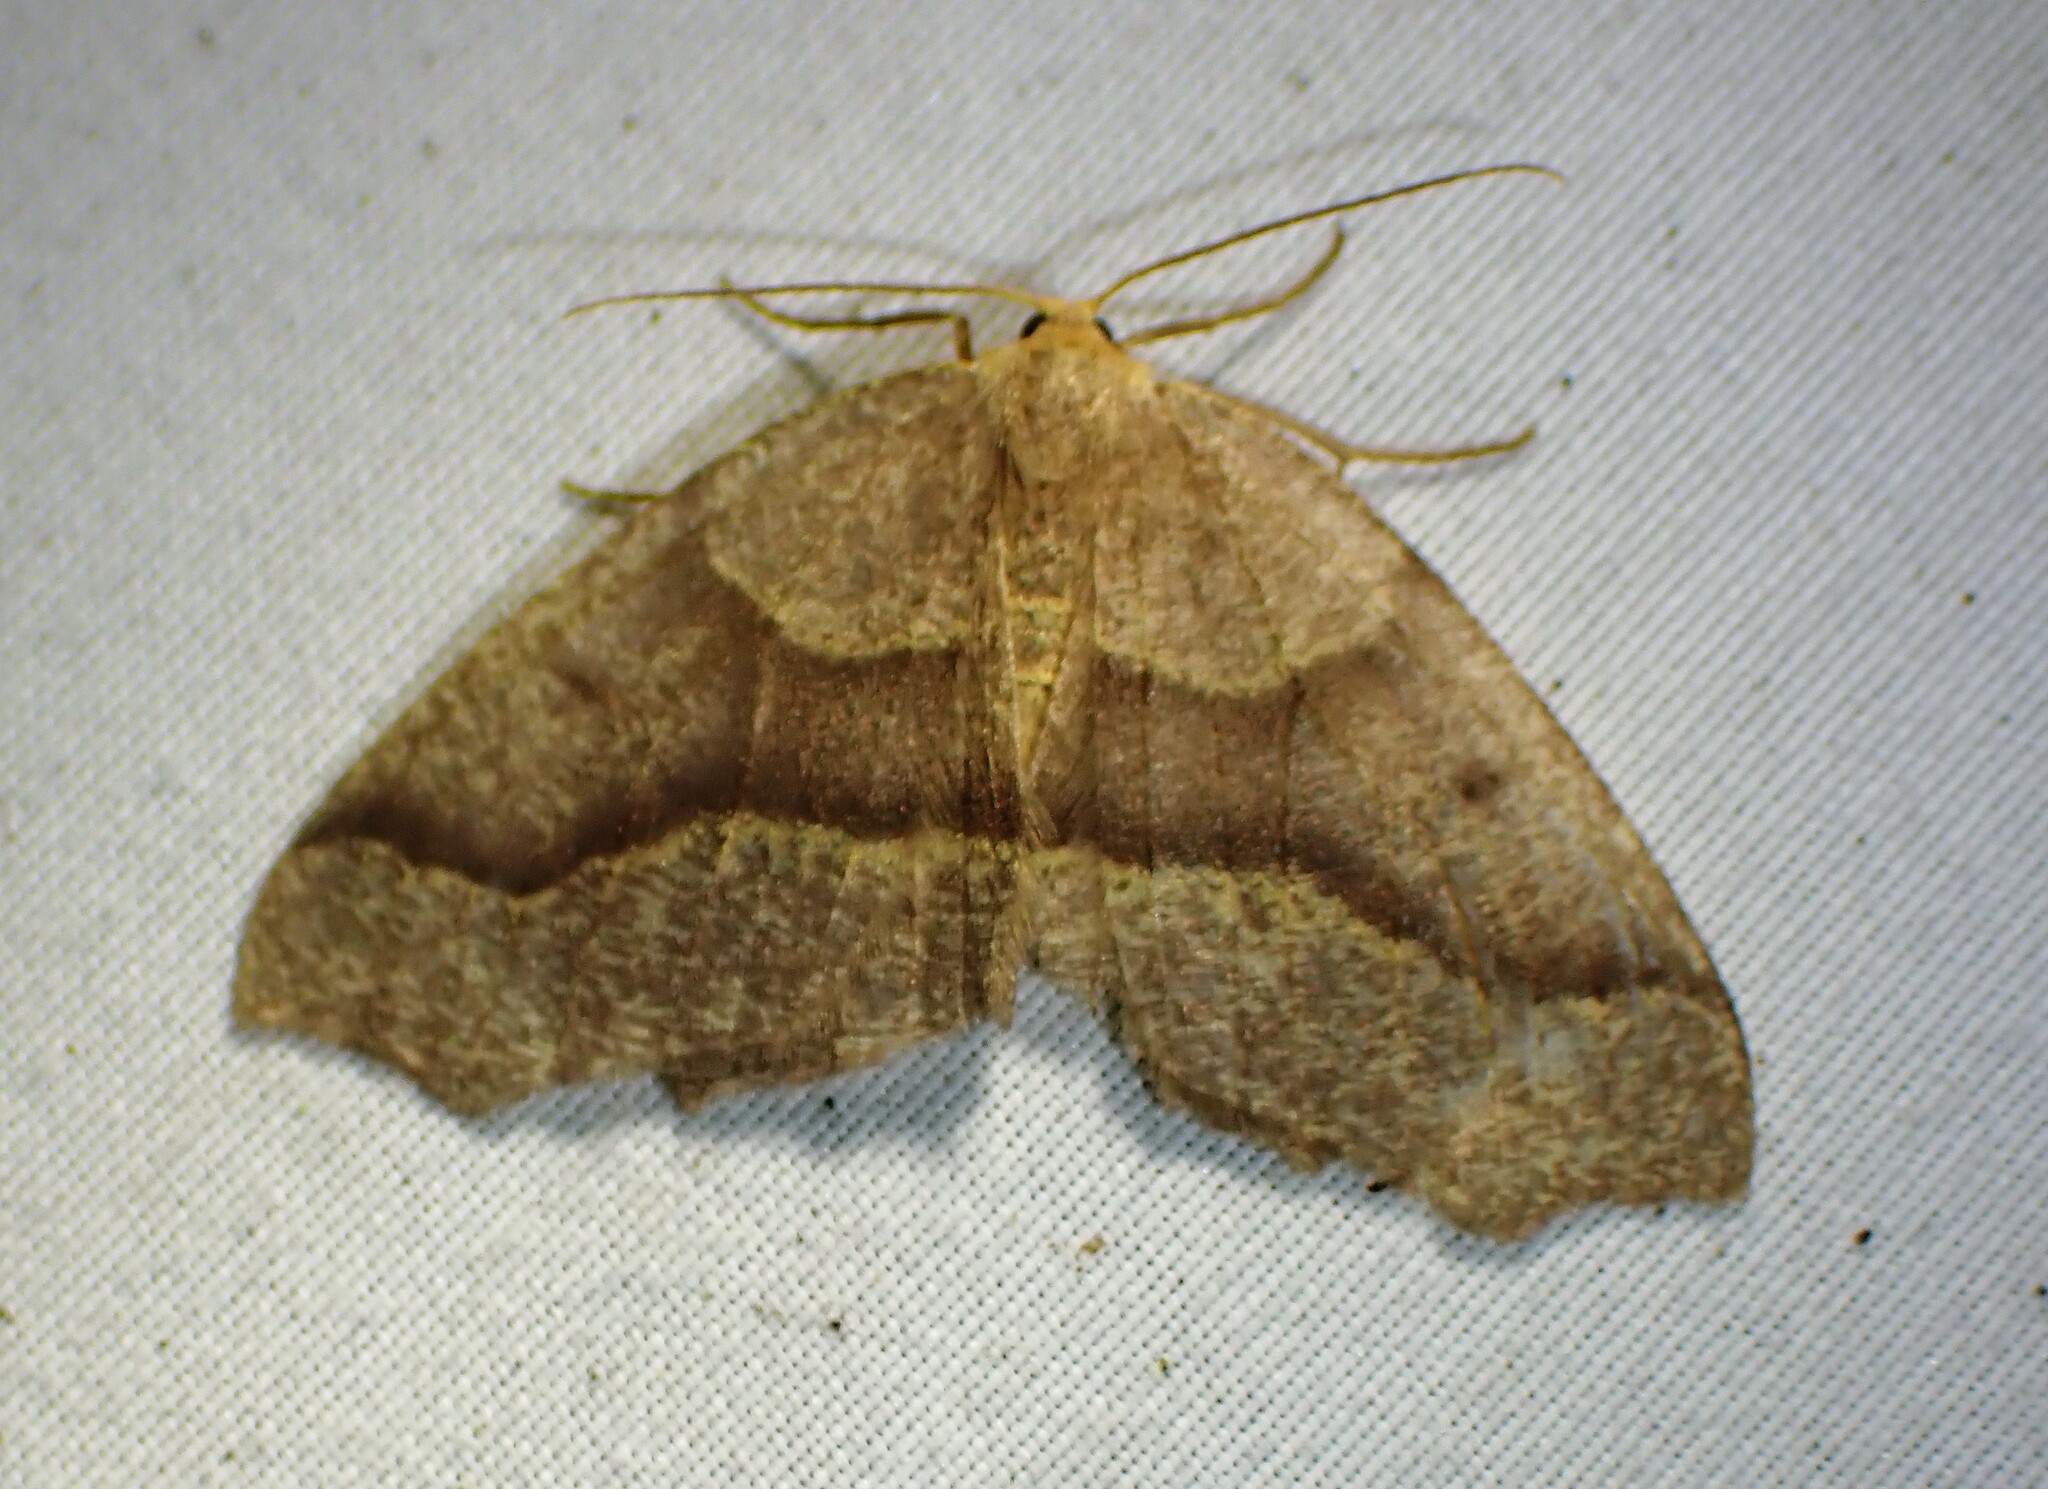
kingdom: Animalia
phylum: Arthropoda
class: Insecta
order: Lepidoptera
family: Geometridae
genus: Lambdina
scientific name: Lambdina fiscellaria
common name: Hemlock looper
